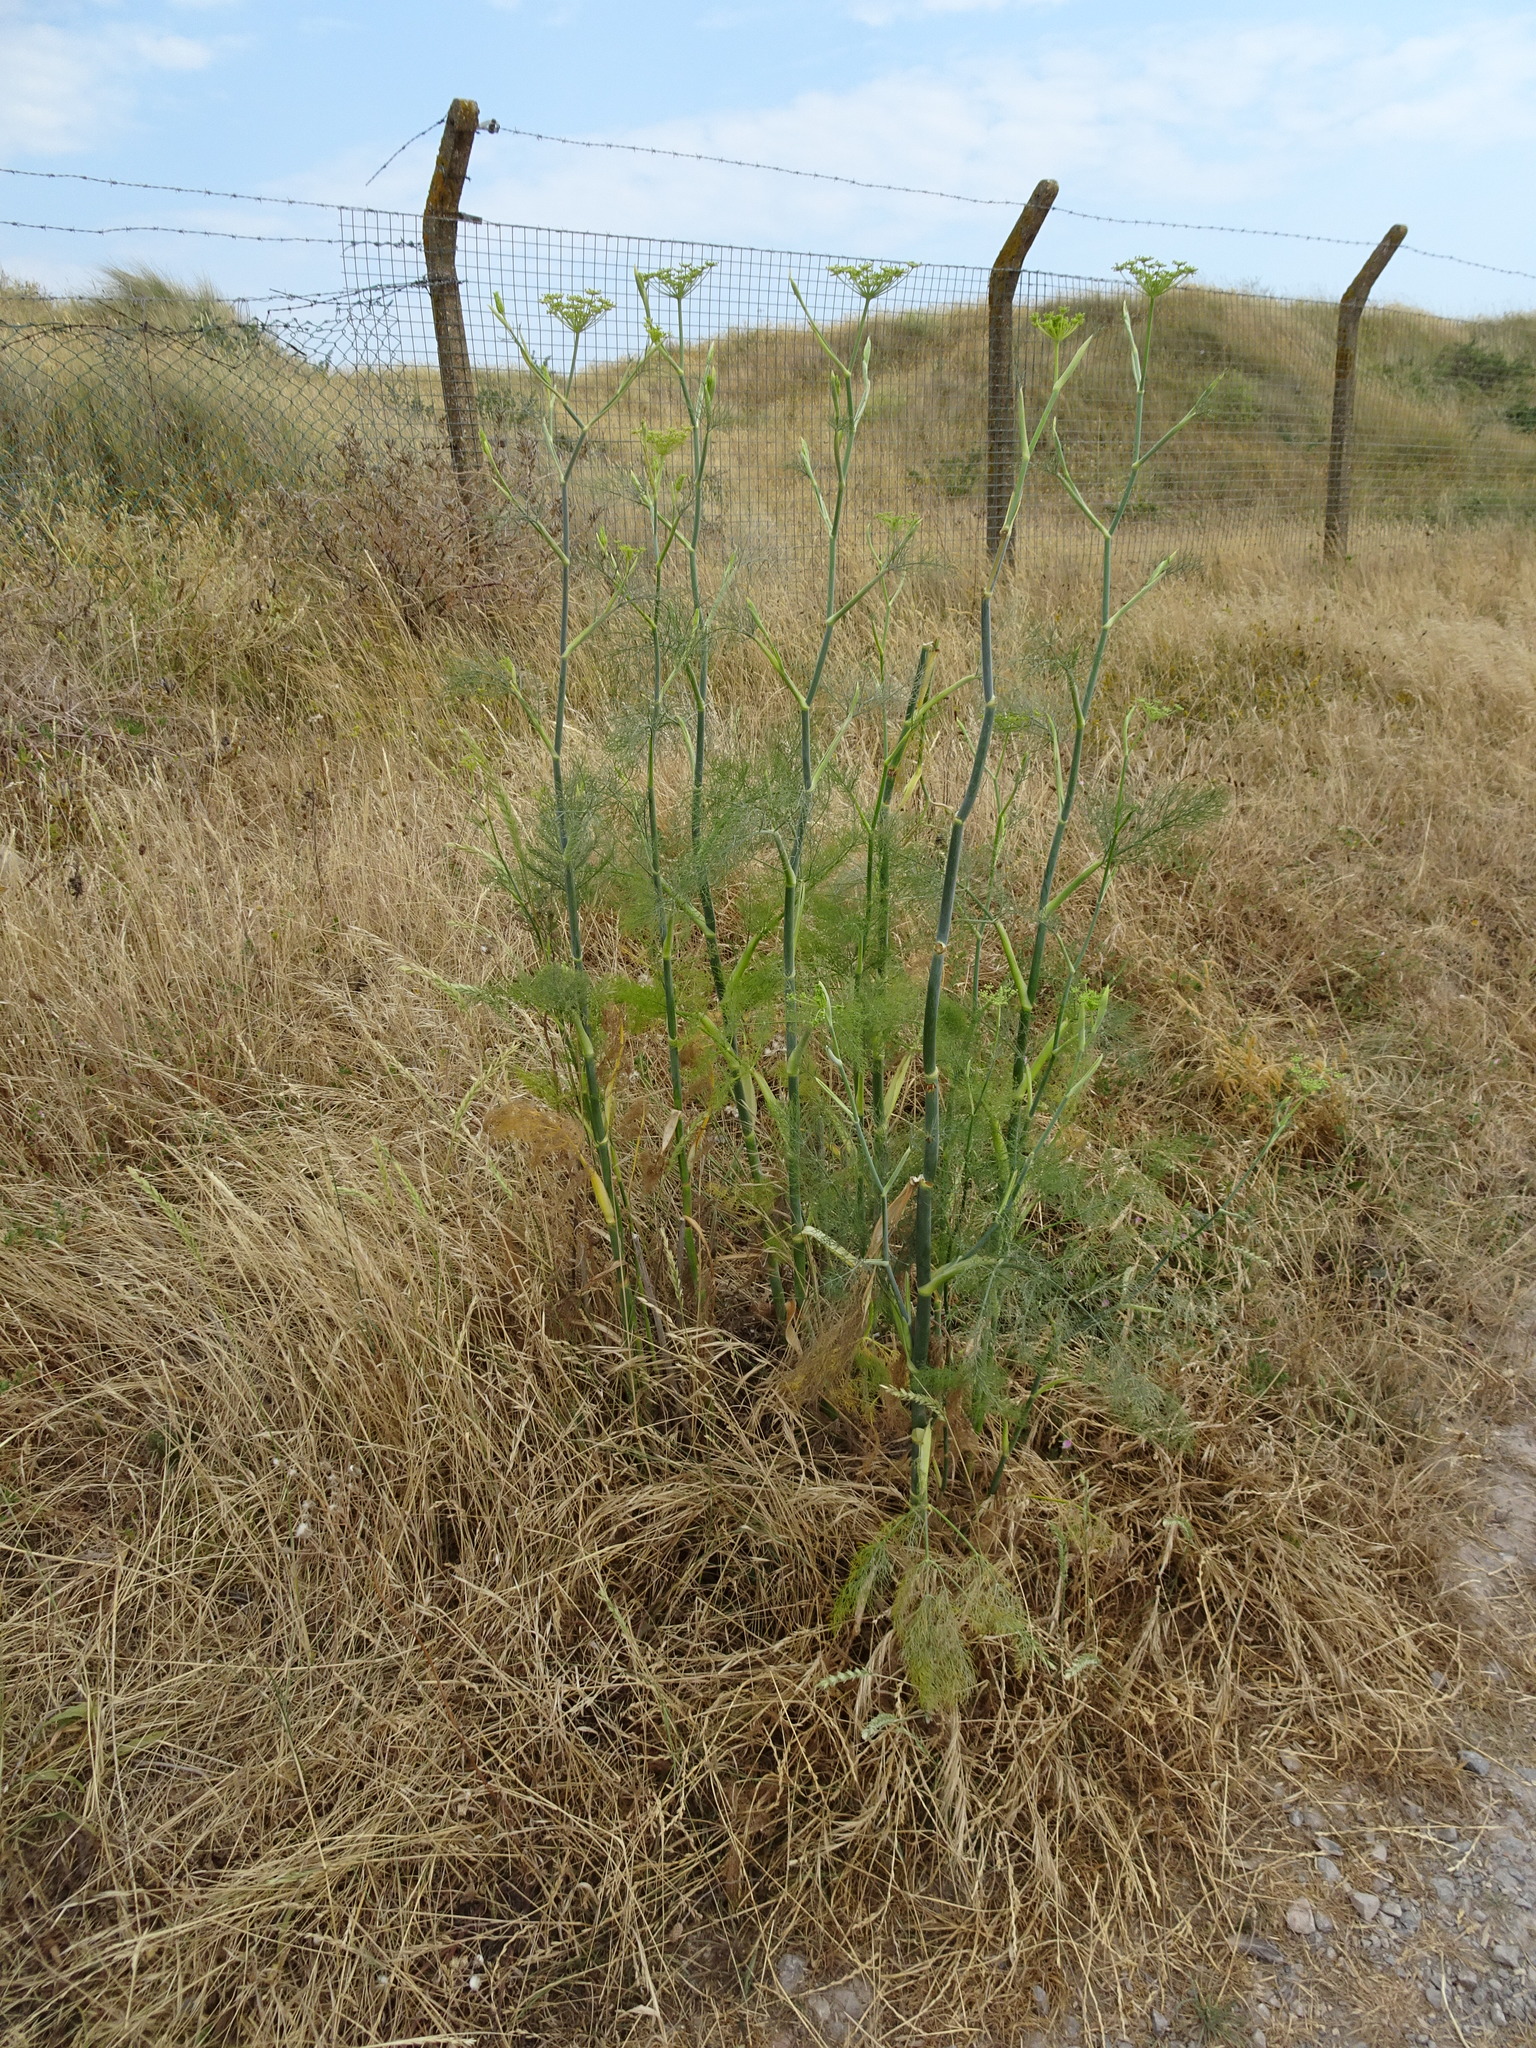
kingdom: Plantae
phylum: Tracheophyta
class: Magnoliopsida
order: Apiales
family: Apiaceae
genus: Foeniculum
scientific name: Foeniculum vulgare
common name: Fennel
